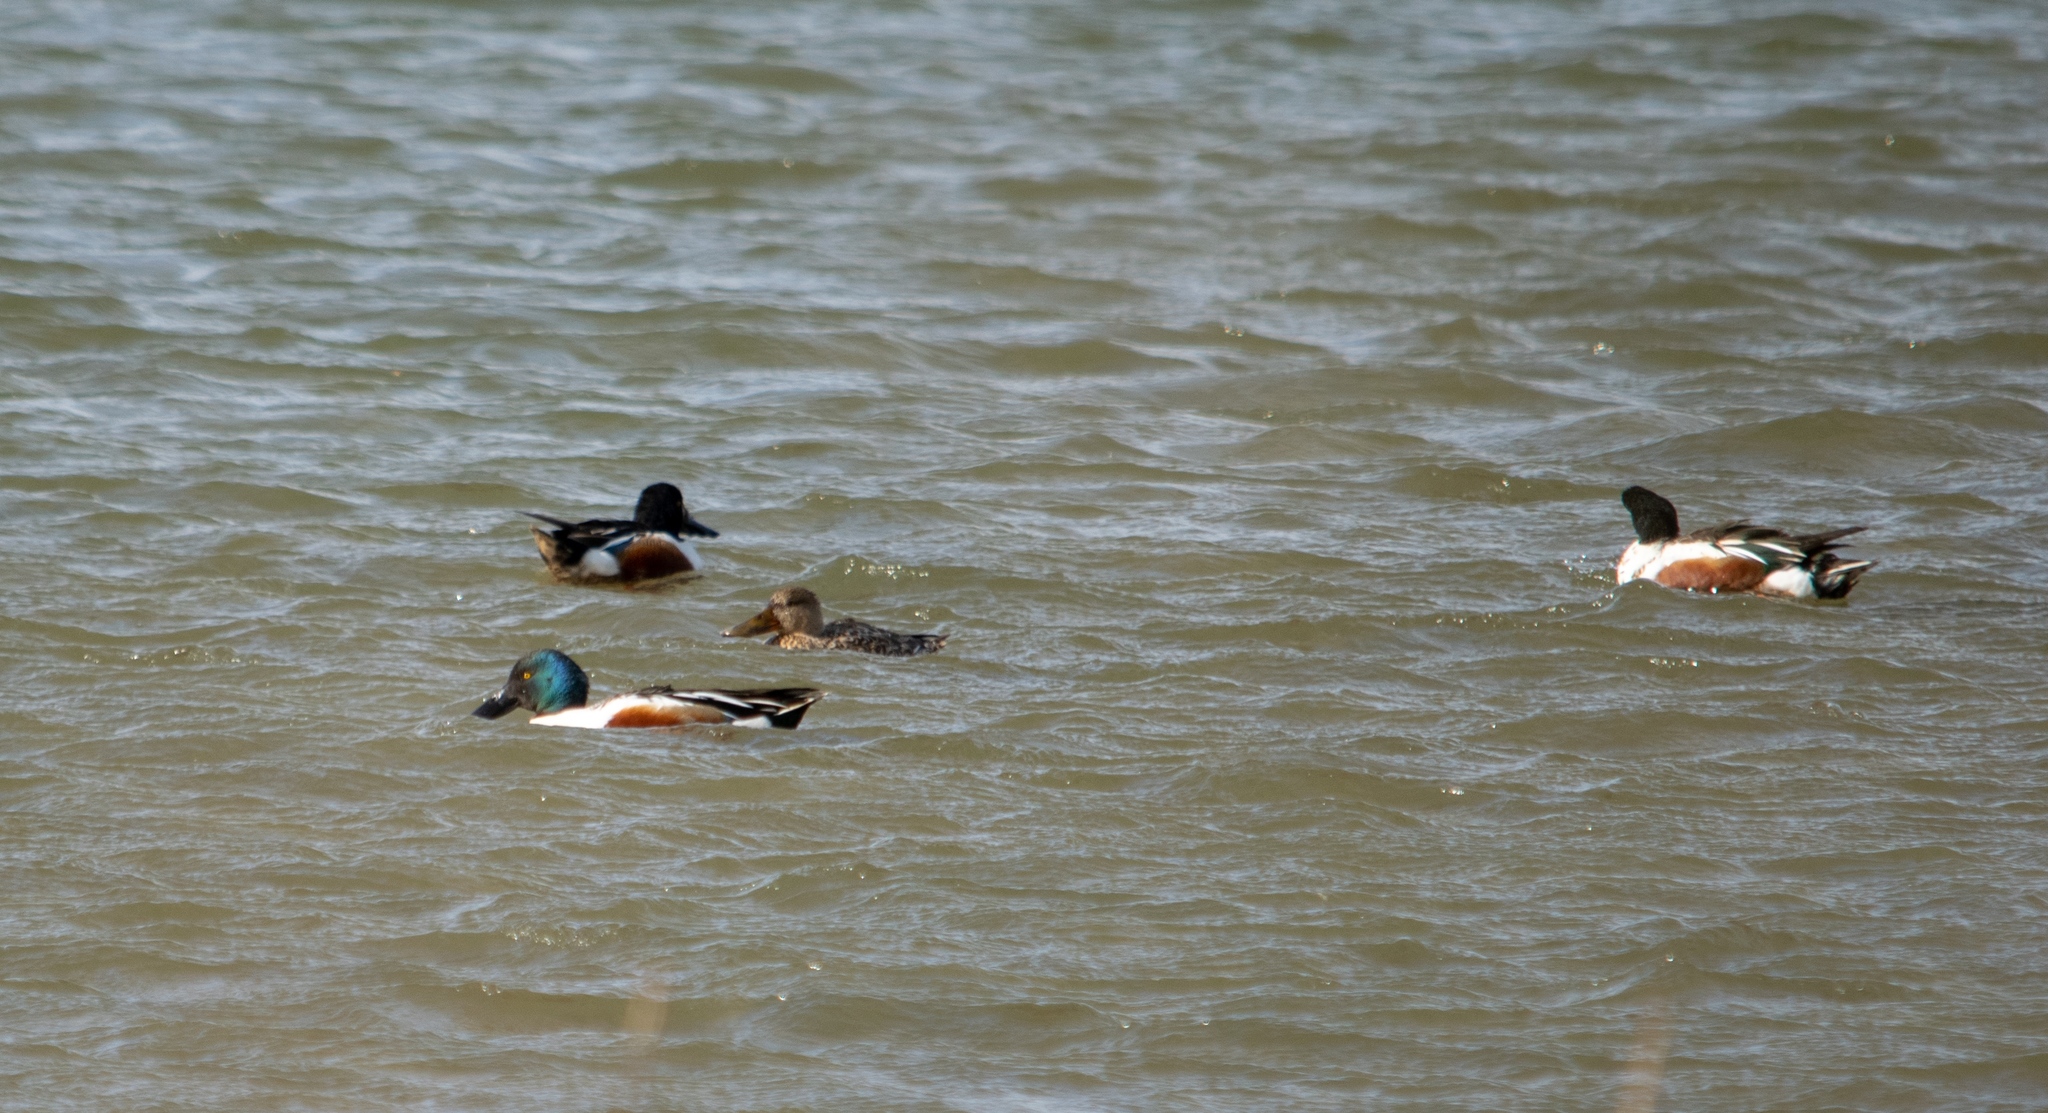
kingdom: Animalia
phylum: Chordata
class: Aves
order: Anseriformes
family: Anatidae
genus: Spatula
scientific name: Spatula clypeata
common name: Northern shoveler
